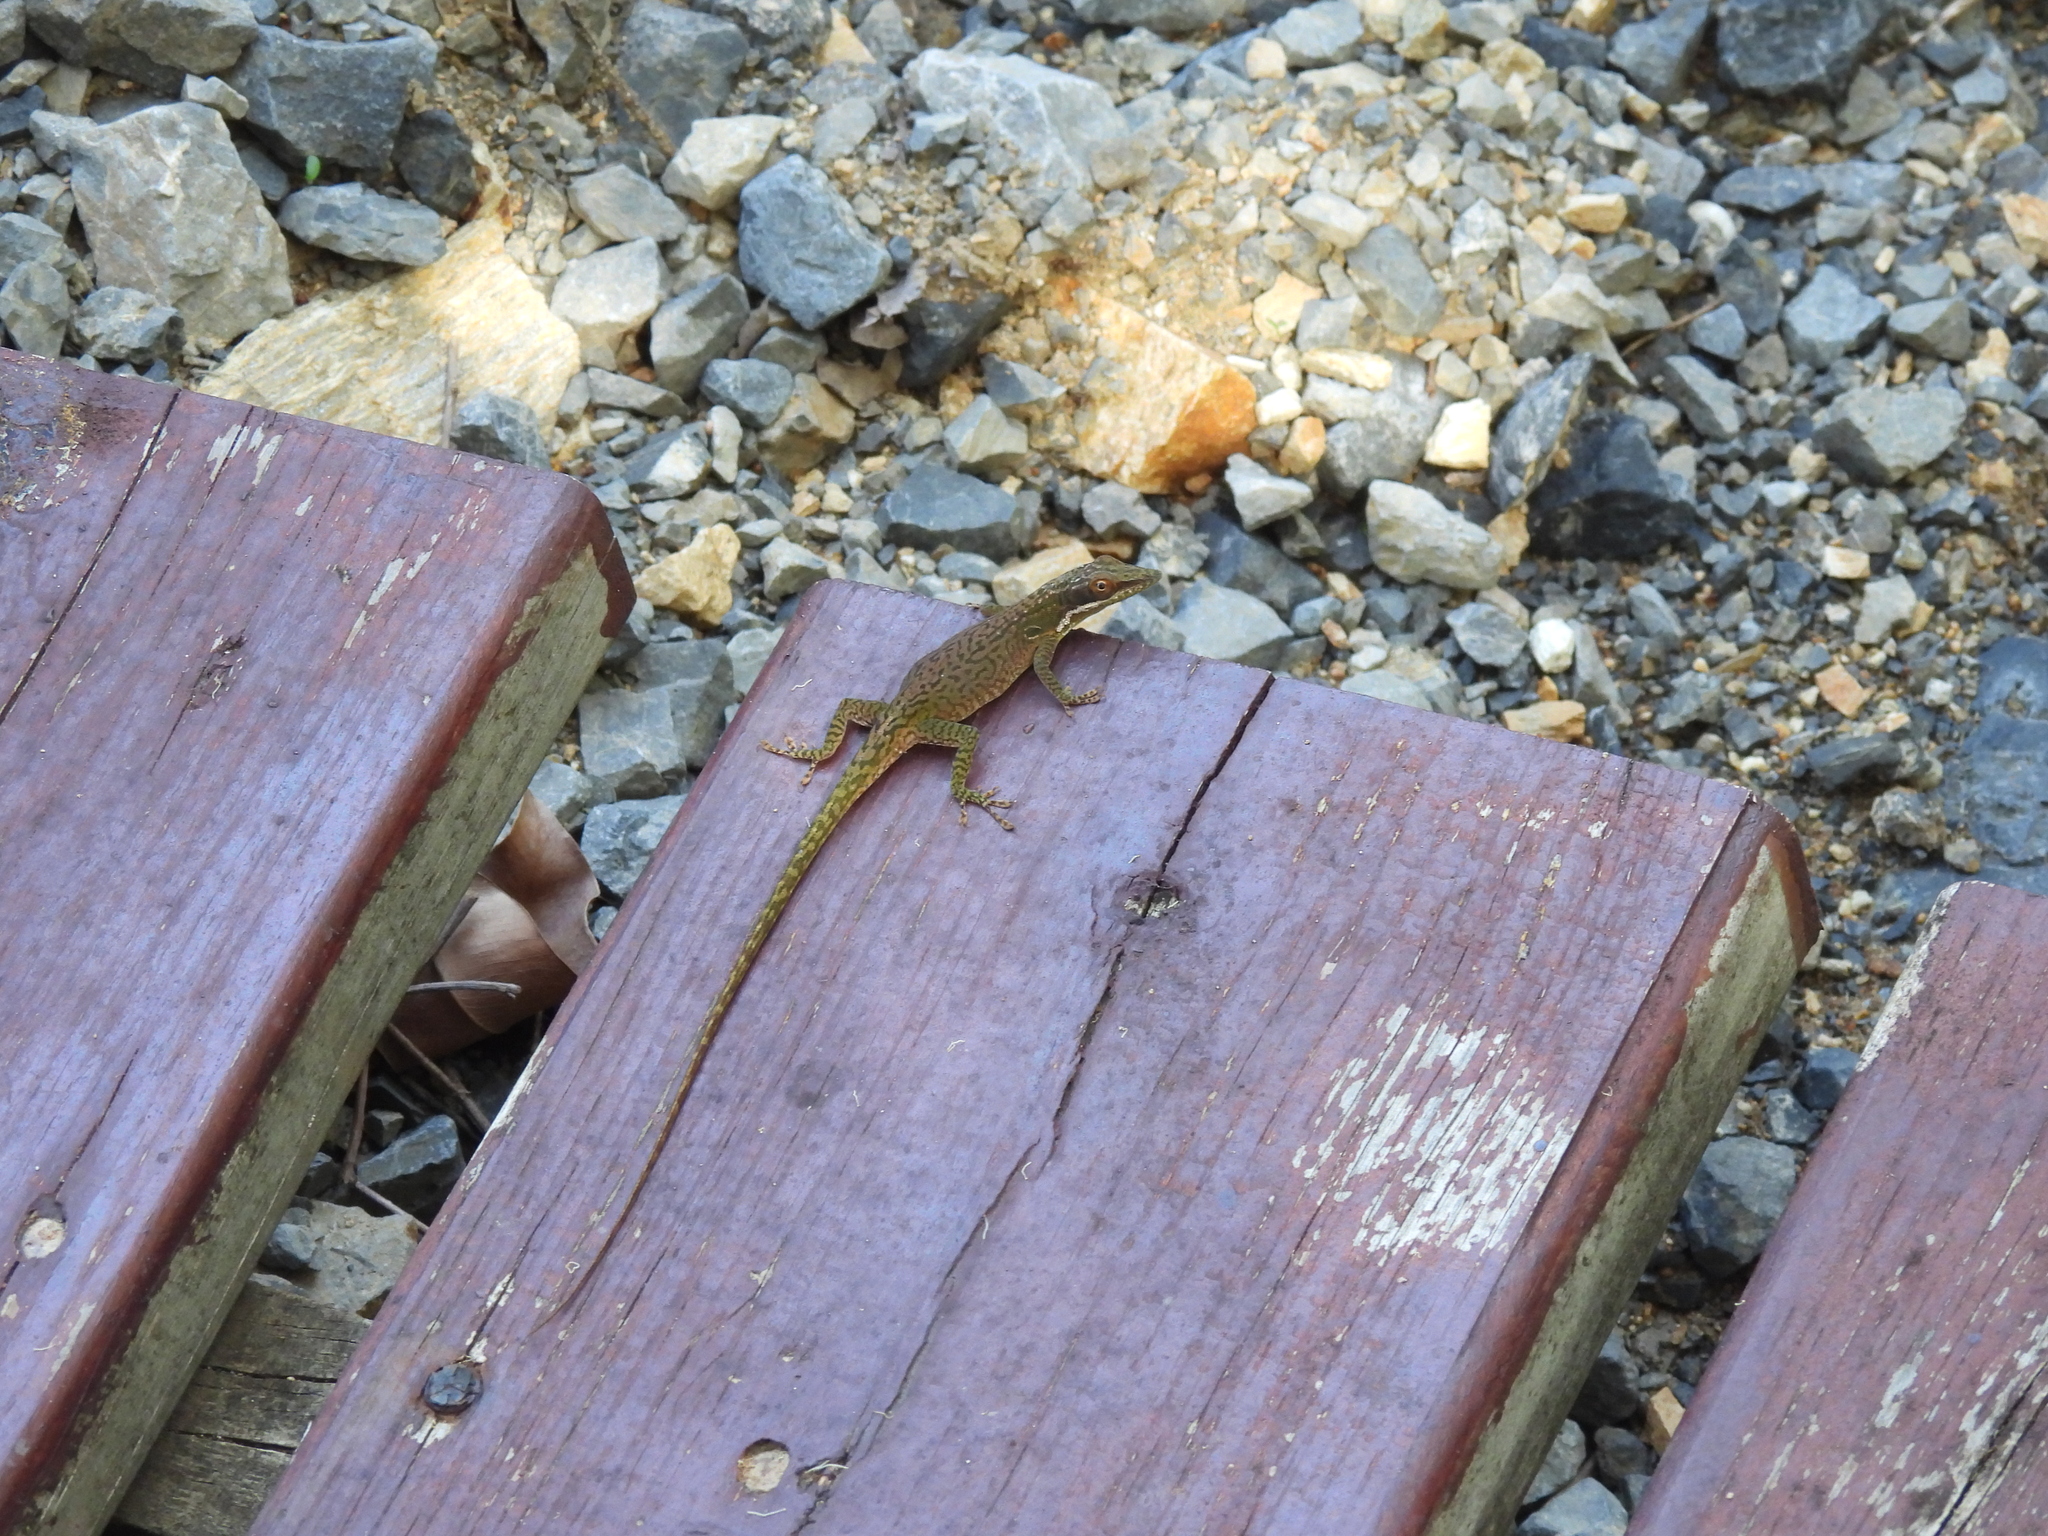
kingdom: Animalia
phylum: Chordata
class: Squamata
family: Dactyloidae
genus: Anolis
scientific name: Anolis allisoni
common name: Allison's anole
